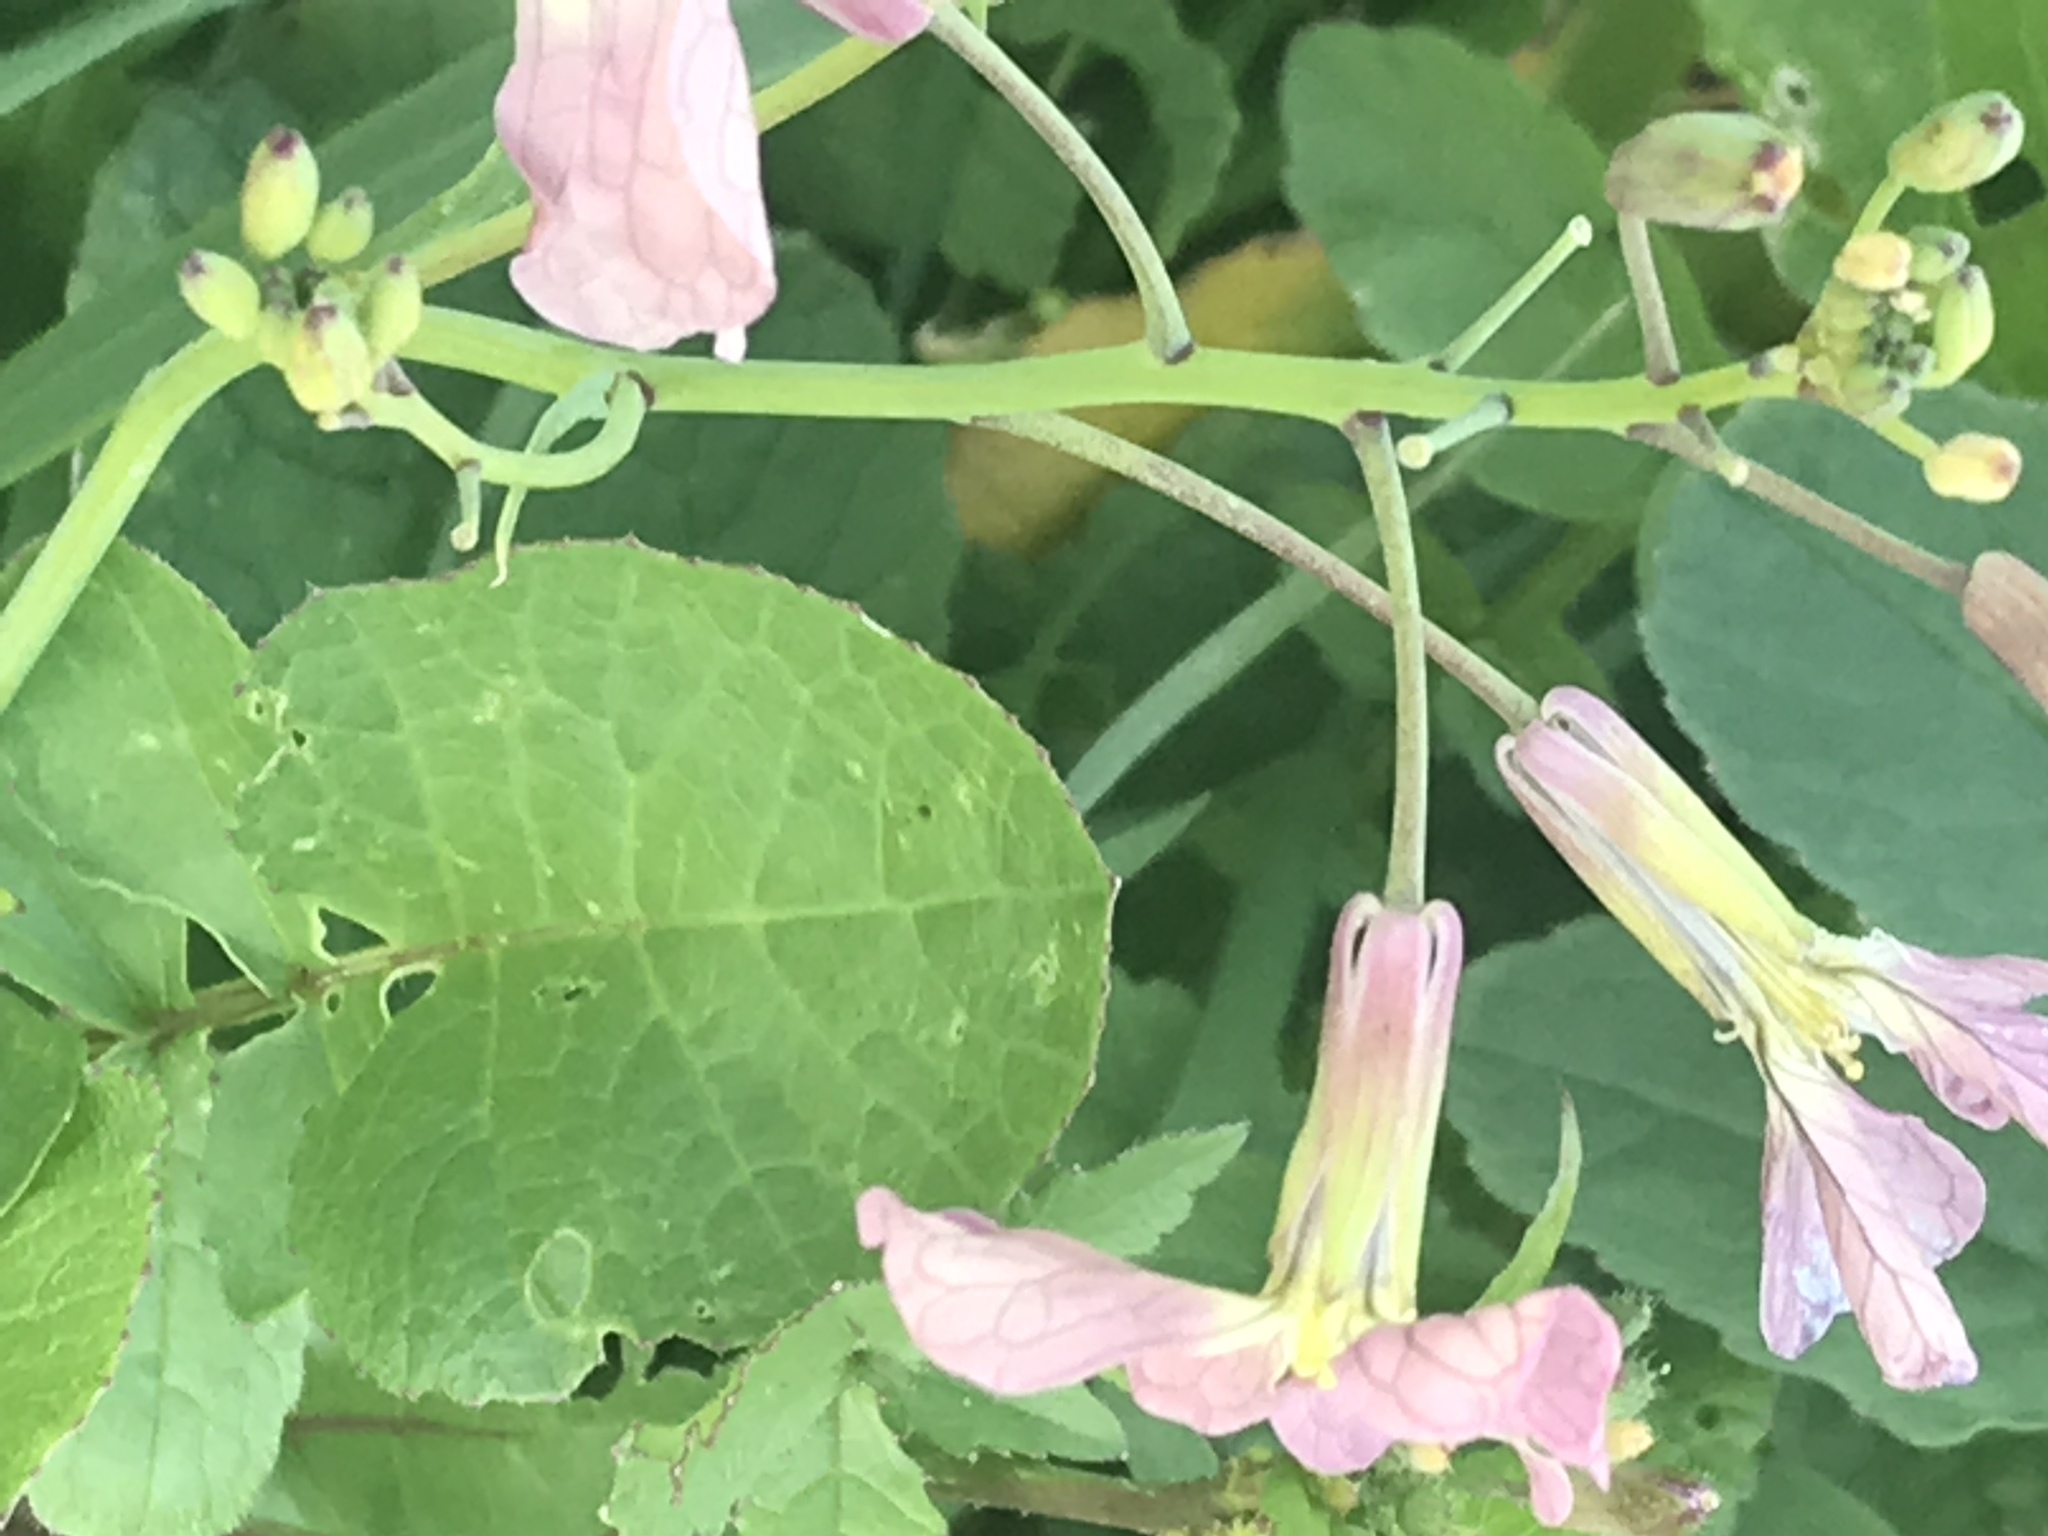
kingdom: Plantae
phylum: Tracheophyta
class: Magnoliopsida
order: Brassicales
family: Brassicaceae
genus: Raphanus
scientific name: Raphanus sativus
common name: Cultivated radish
